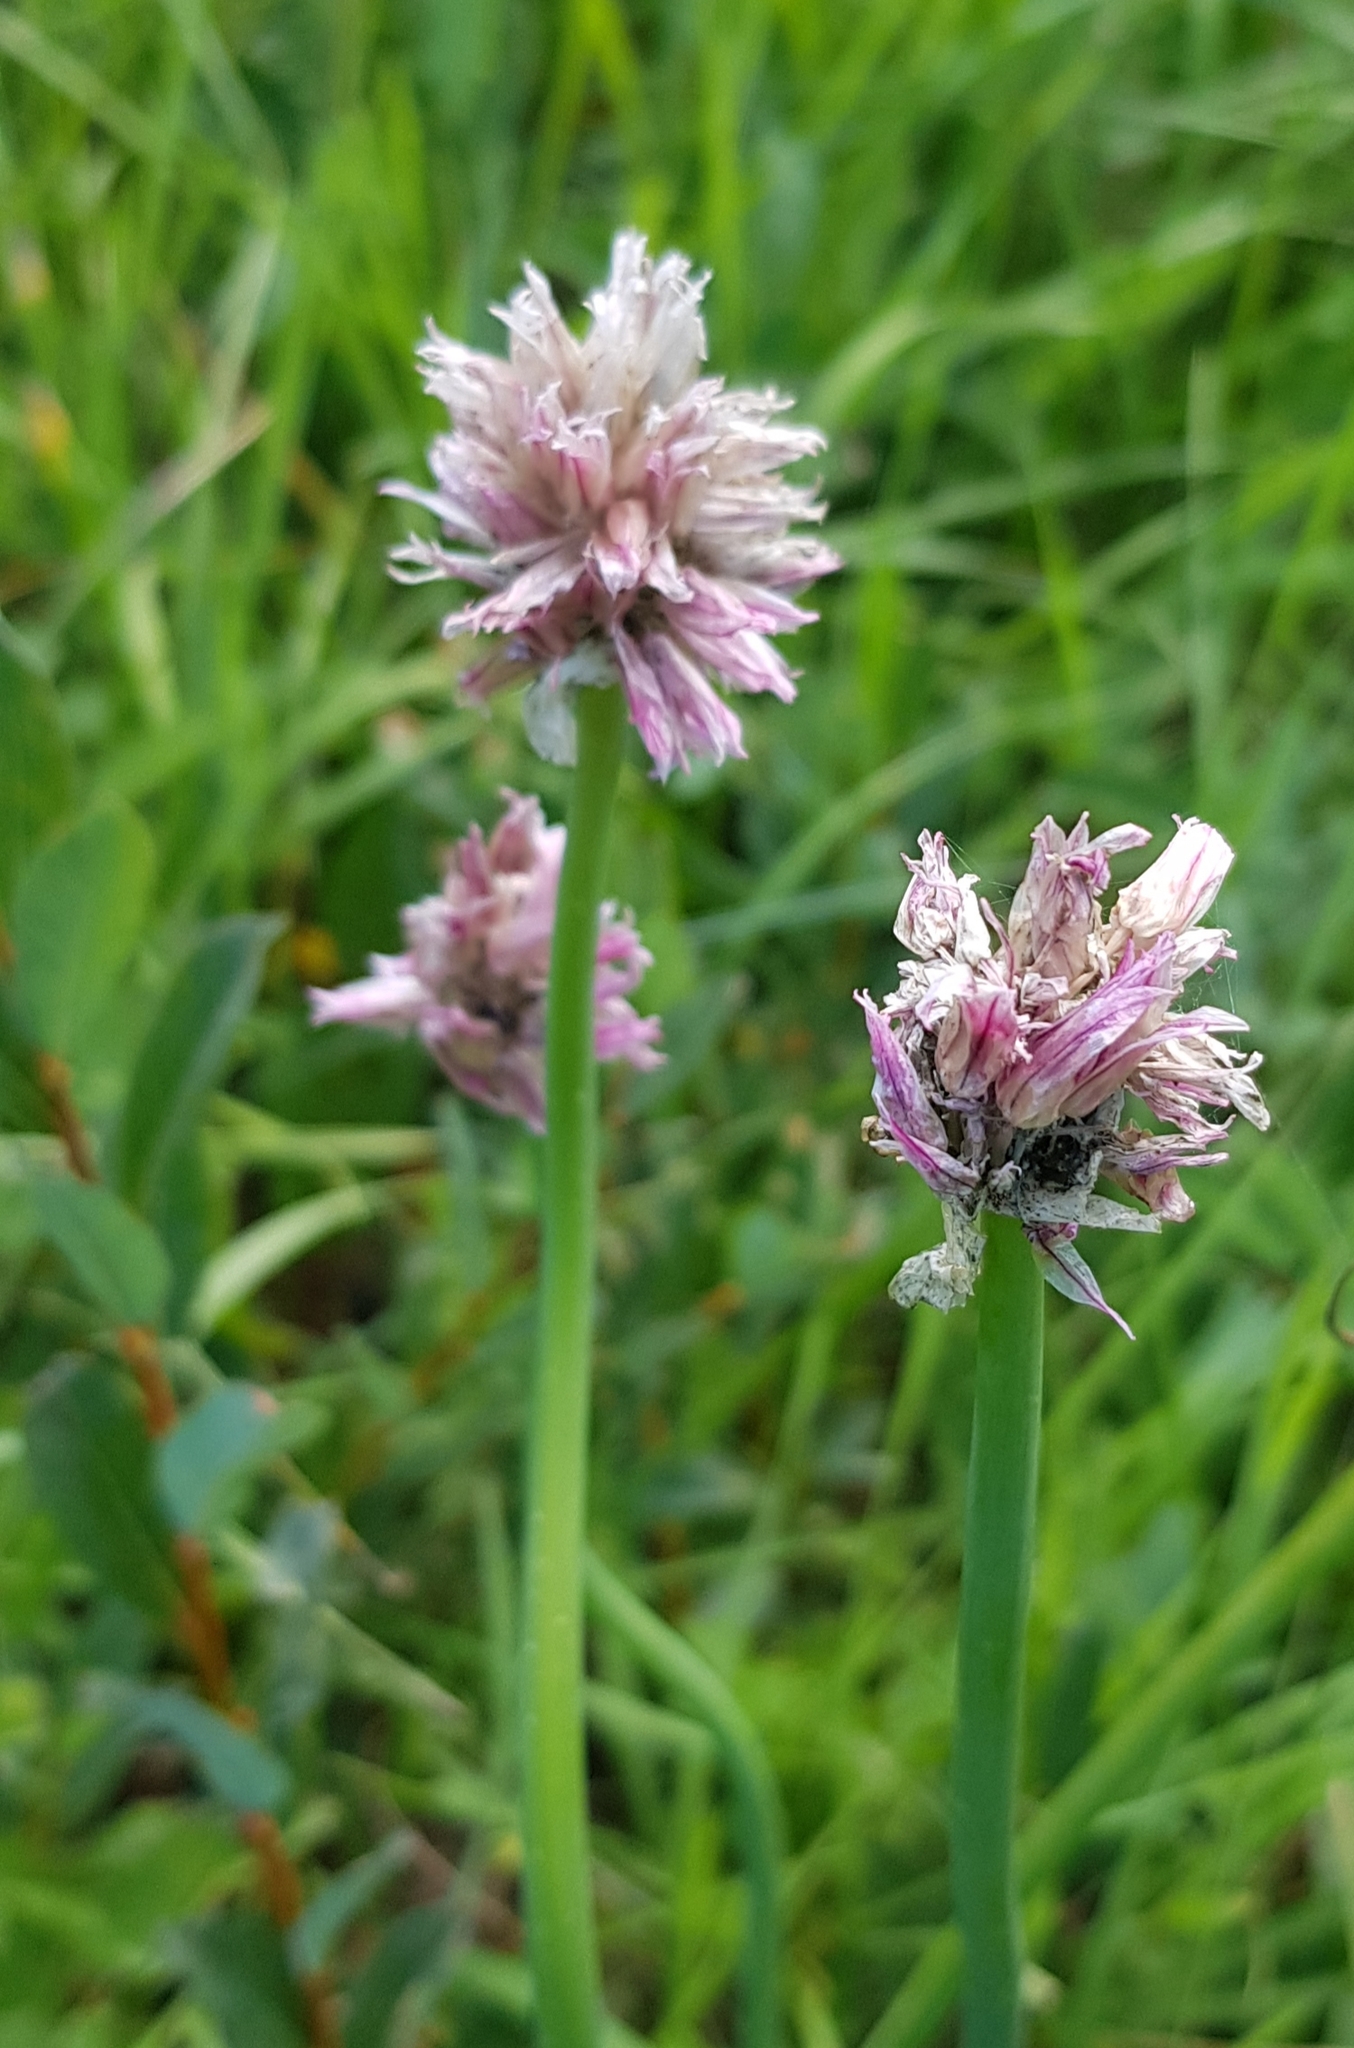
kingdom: Plantae
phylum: Tracheophyta
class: Liliopsida
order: Asparagales
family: Amaryllidaceae
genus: Allium
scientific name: Allium schoenoprasum
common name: Chives
